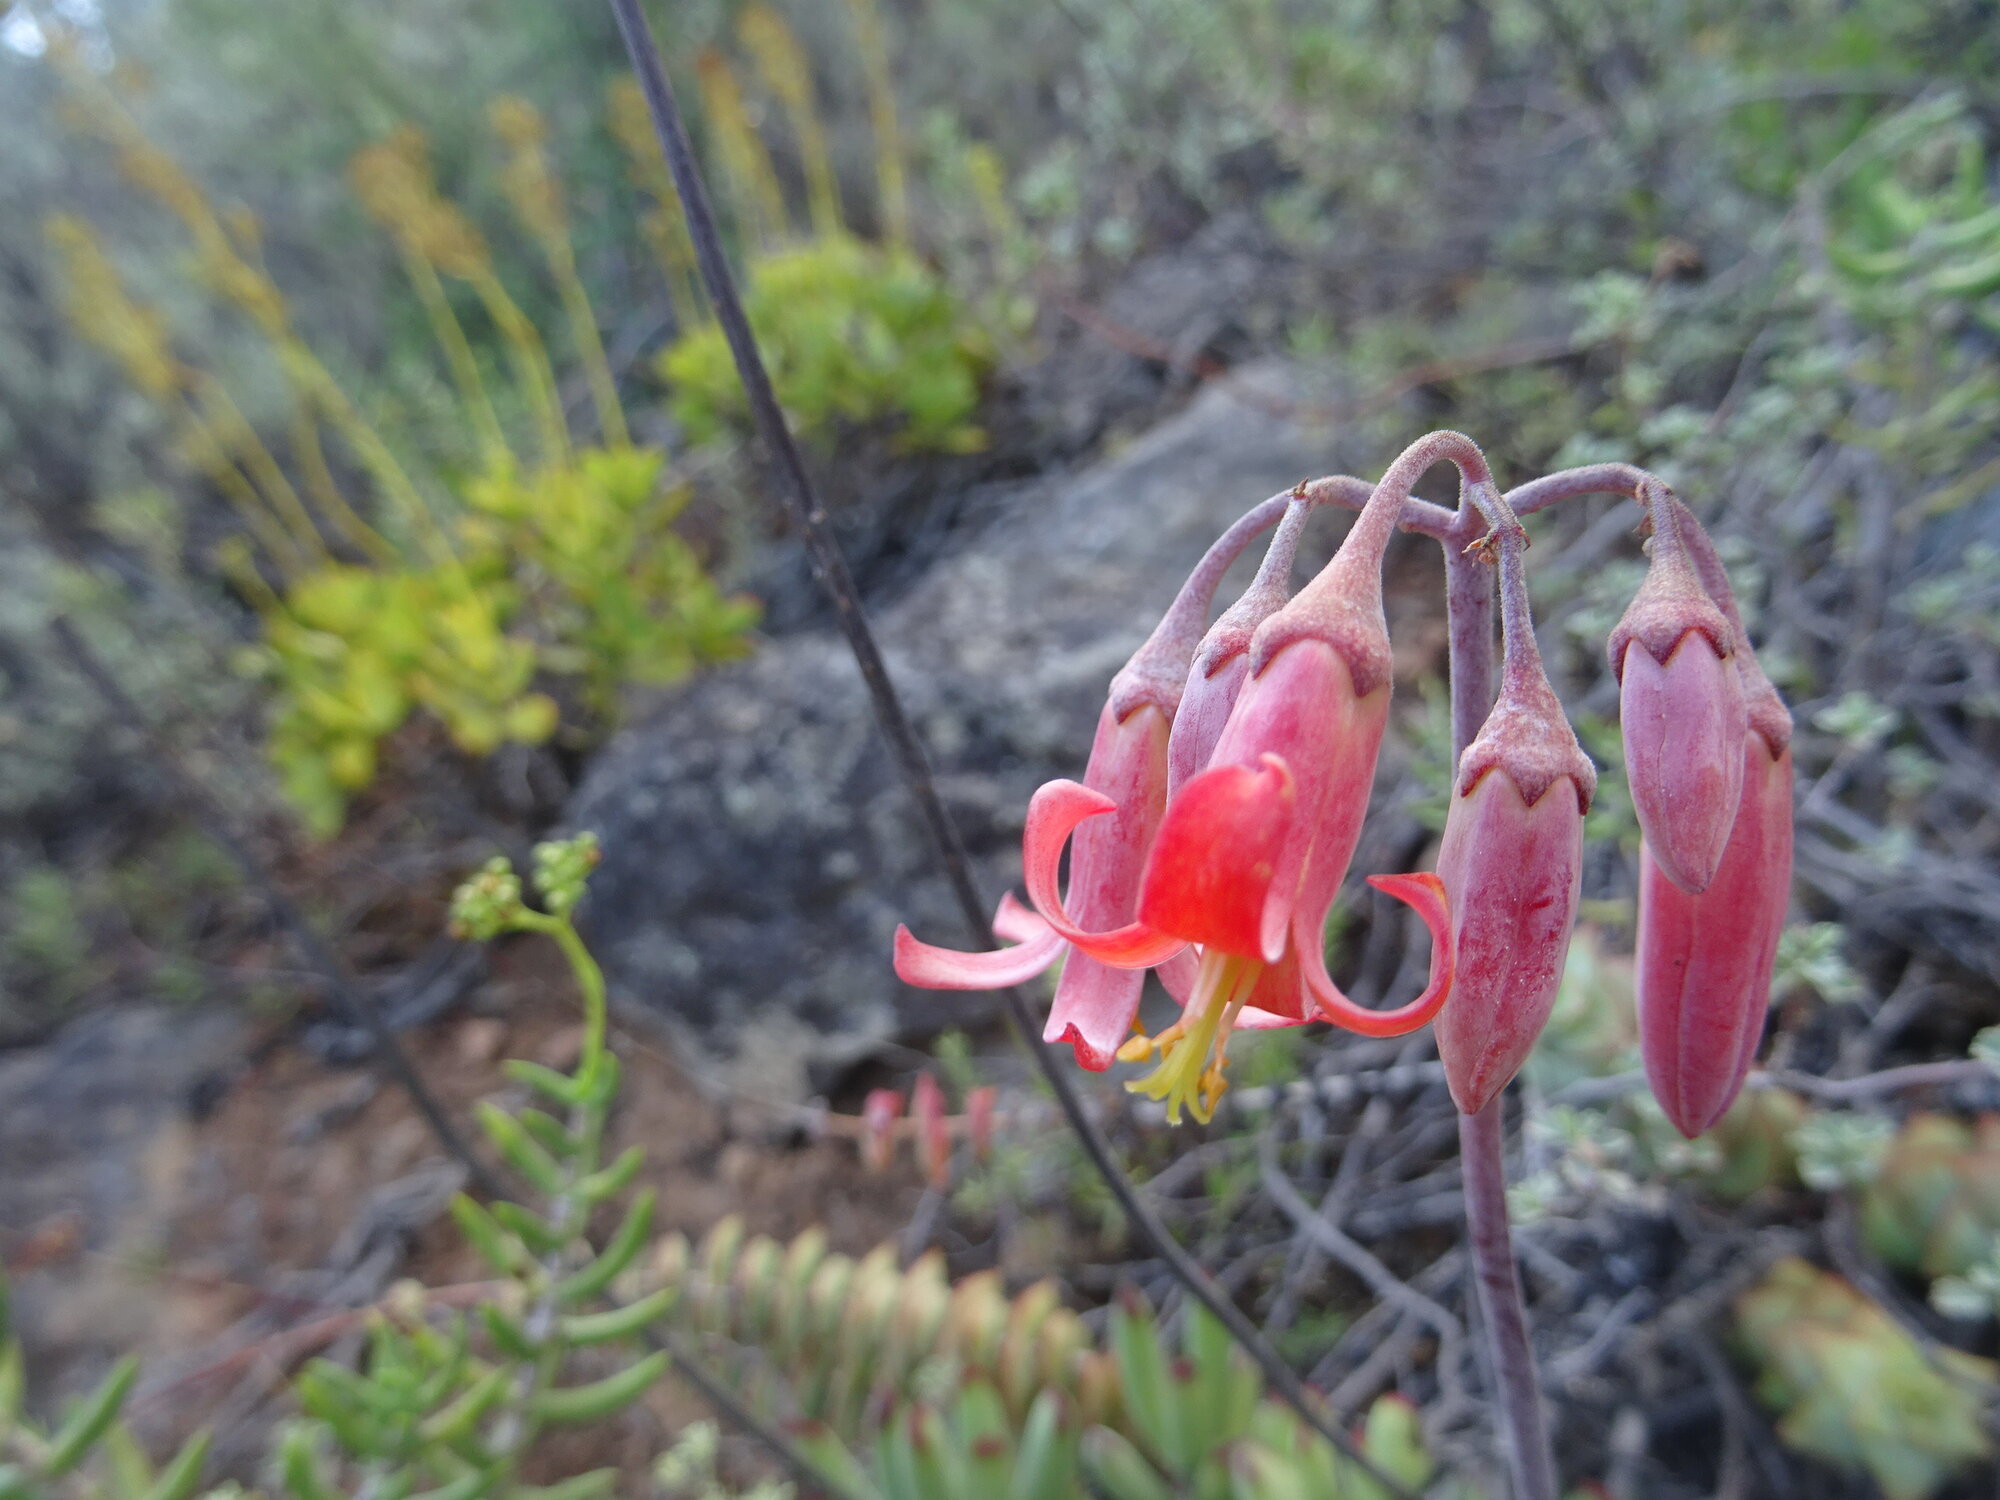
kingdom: Plantae
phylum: Tracheophyta
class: Magnoliopsida
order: Saxifragales
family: Crassulaceae
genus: Cotyledon
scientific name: Cotyledon orbiculata
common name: Pig's ear
